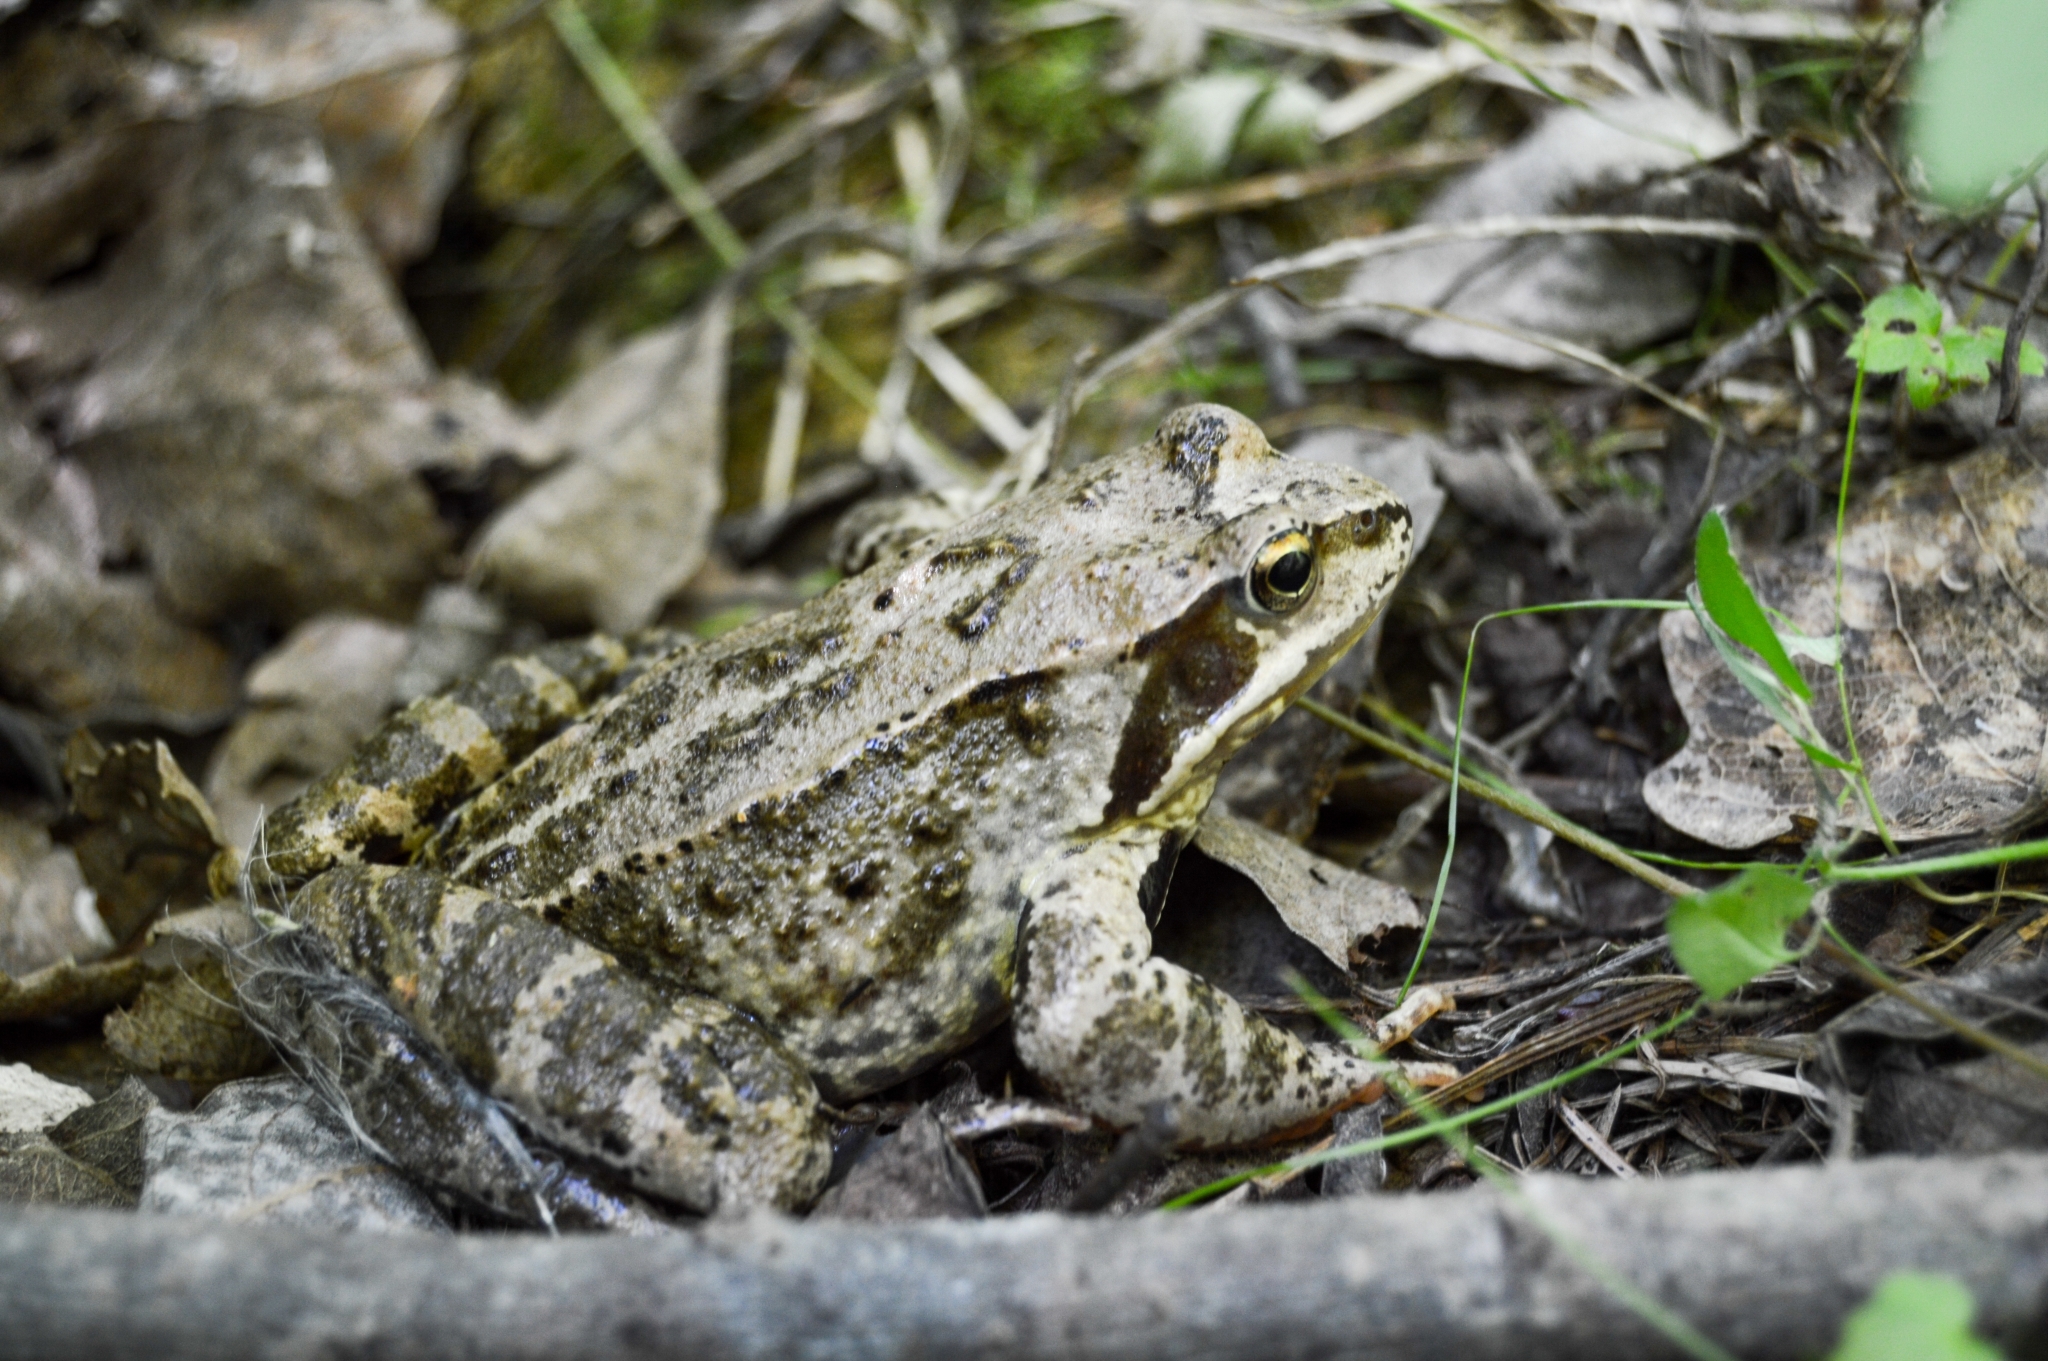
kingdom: Animalia
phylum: Chordata
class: Amphibia
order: Anura
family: Ranidae
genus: Rana
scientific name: Rana temporaria
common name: Common frog
